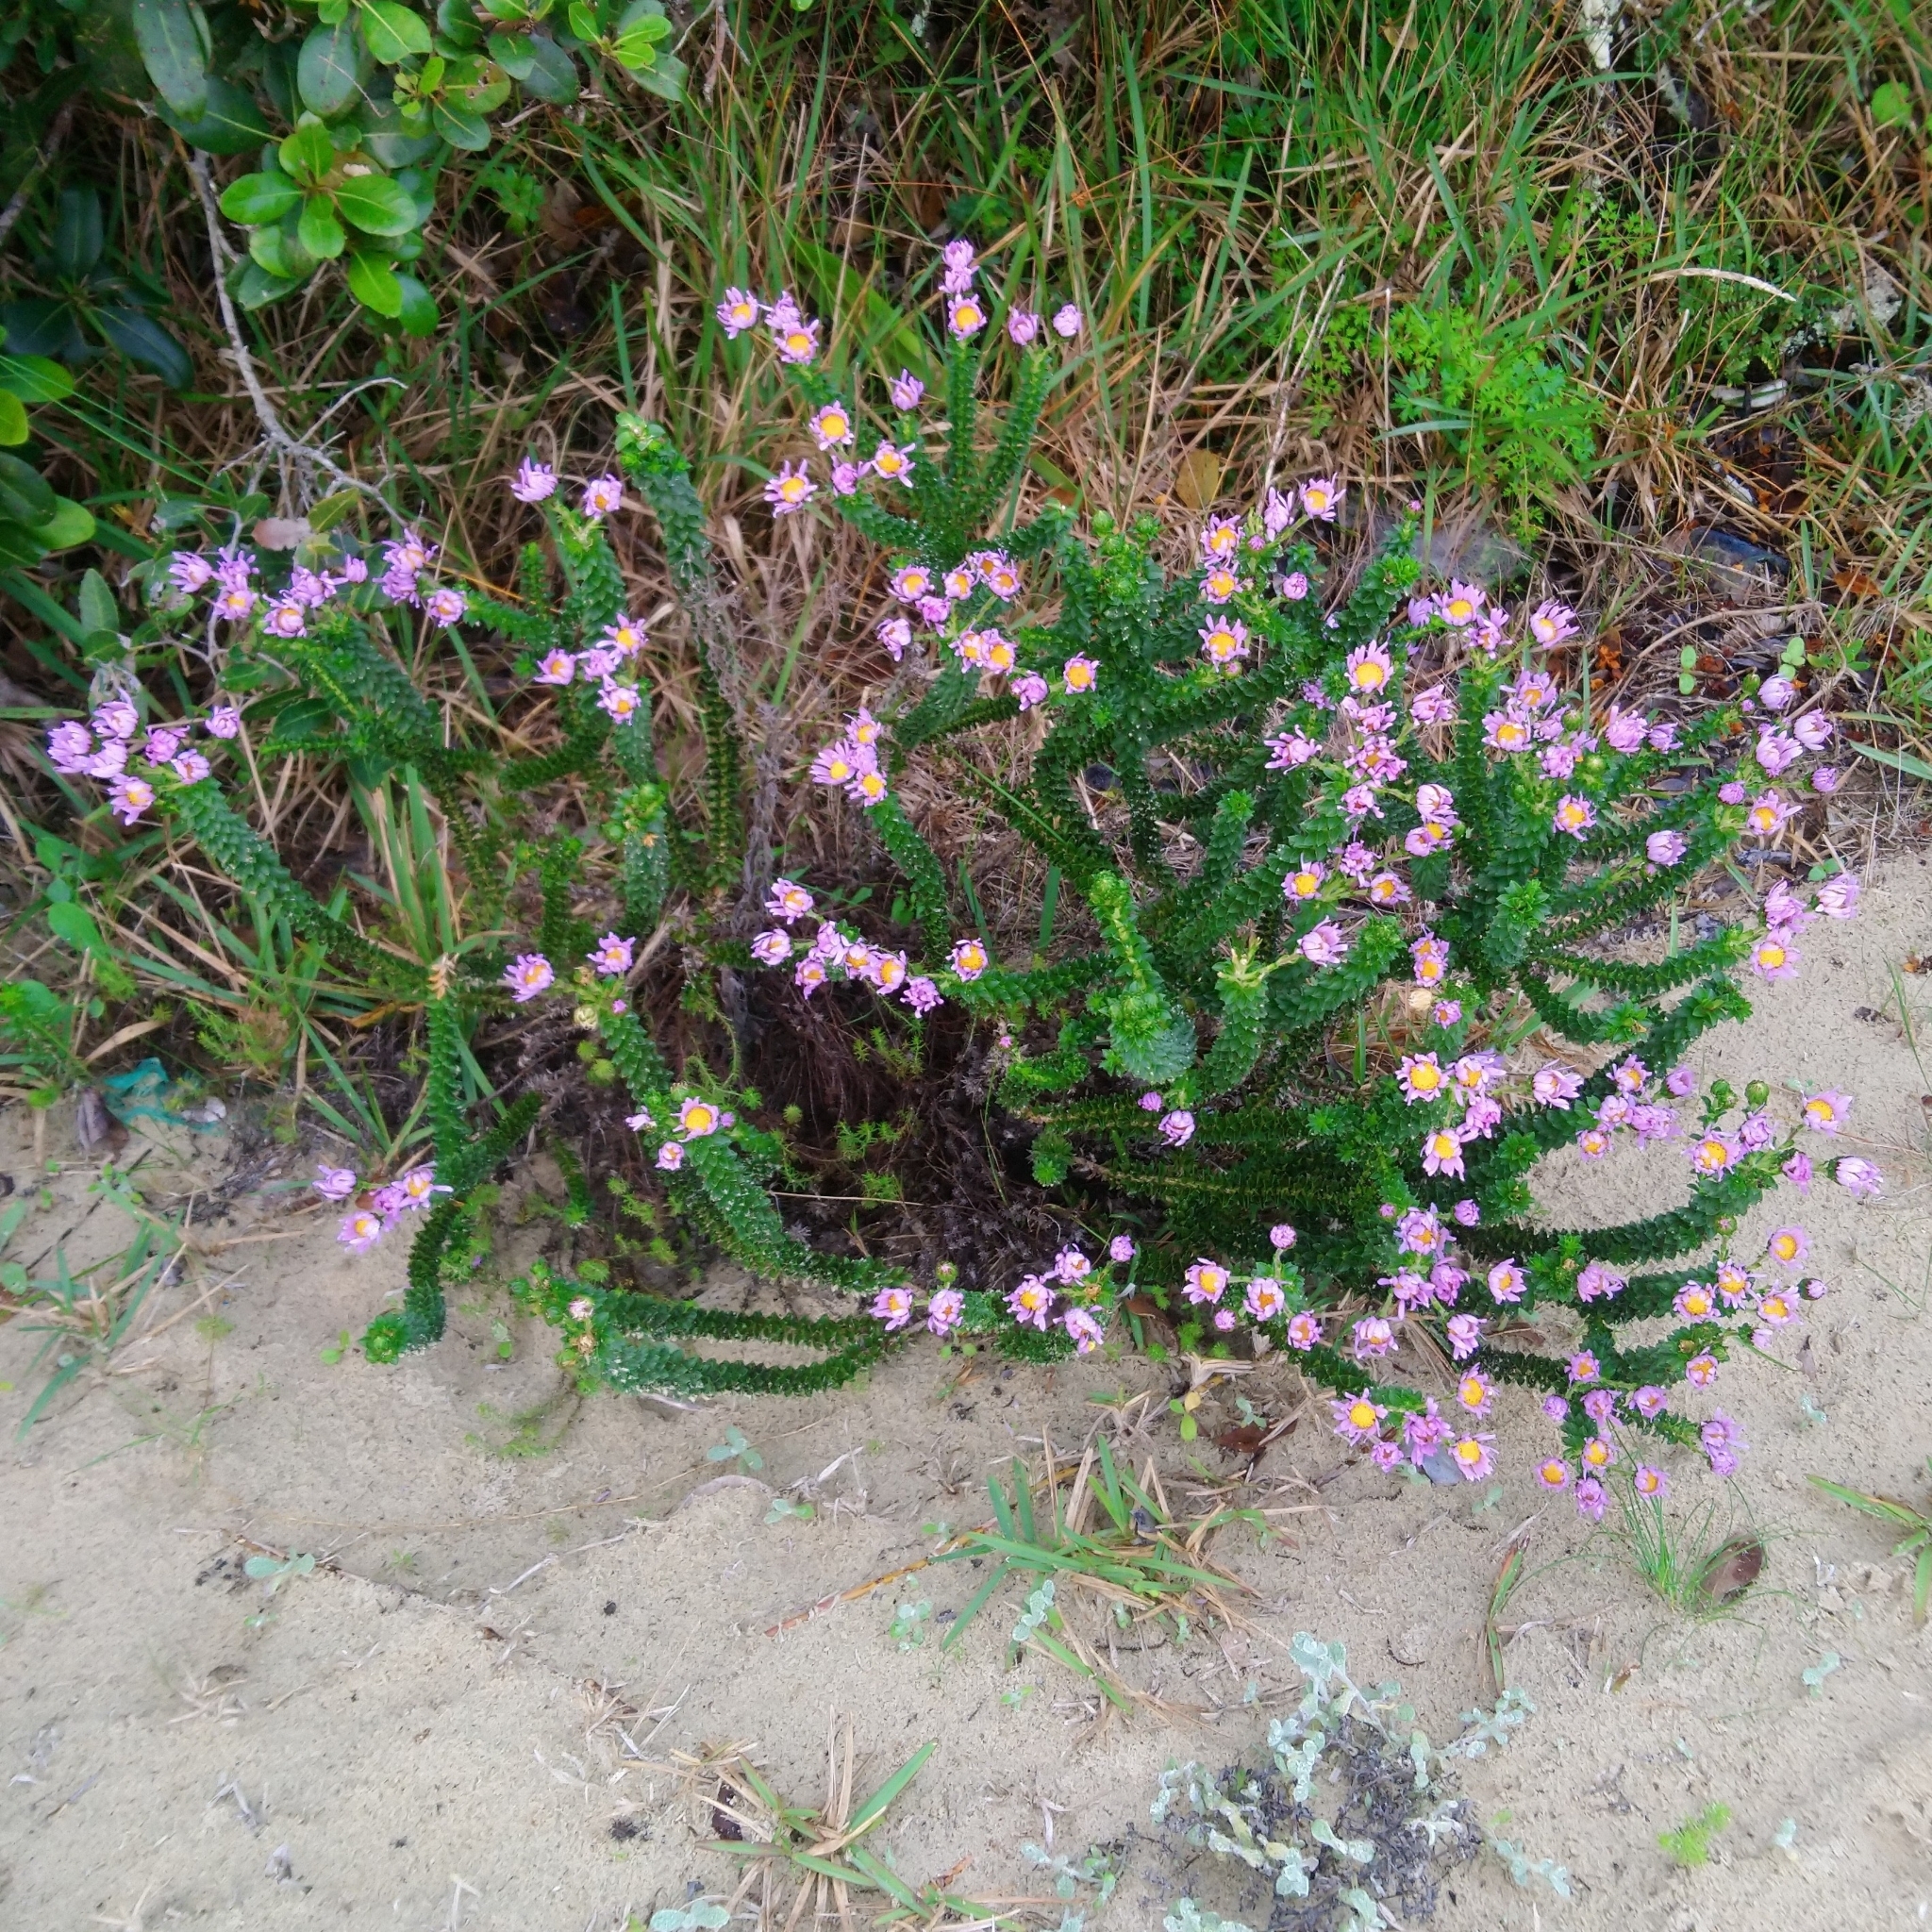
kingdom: Plantae
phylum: Tracheophyta
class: Magnoliopsida
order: Asterales
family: Asteraceae
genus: Felicia
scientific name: Felicia echinata
